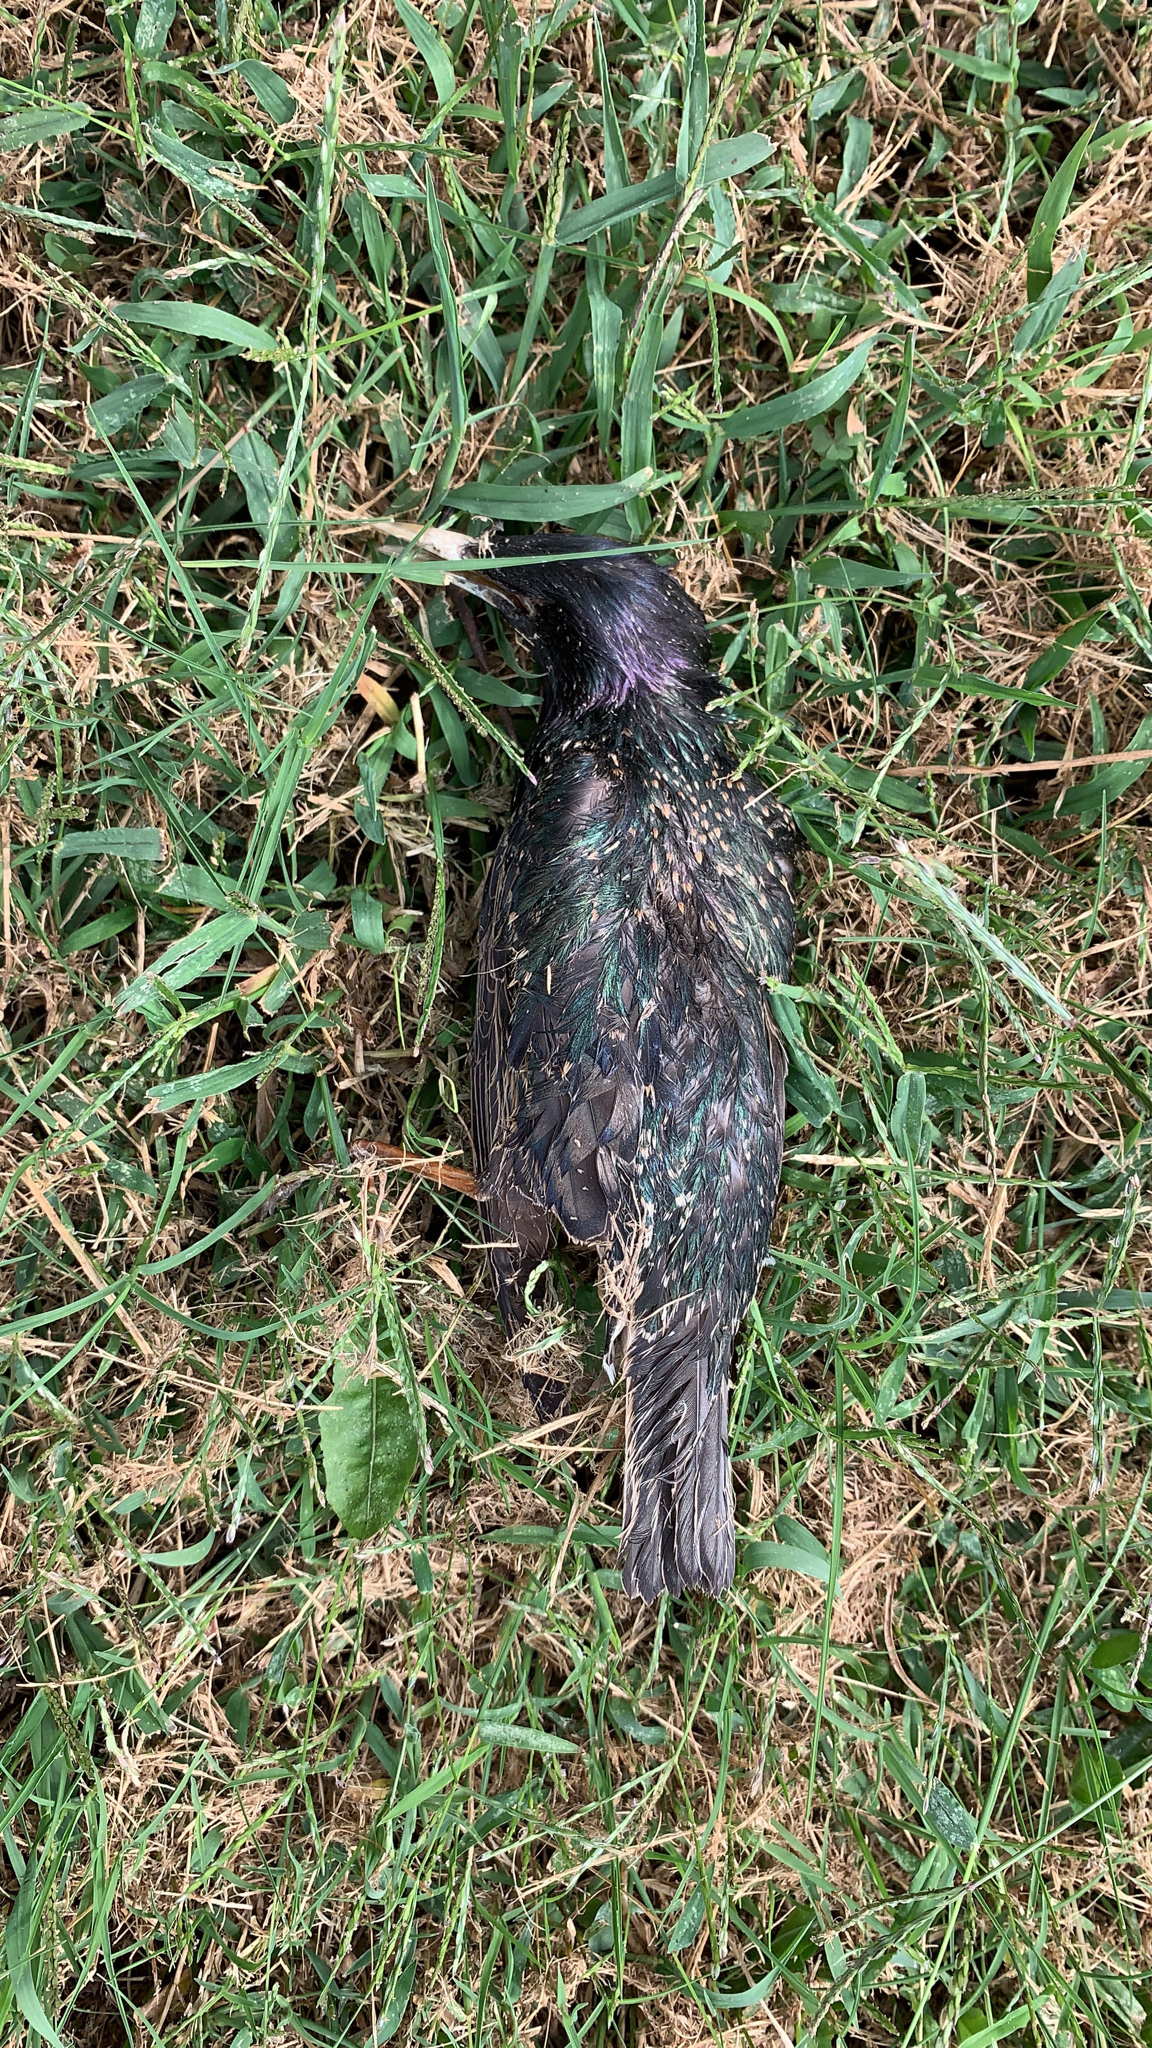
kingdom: Animalia
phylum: Chordata
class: Aves
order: Passeriformes
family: Sturnidae
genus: Sturnus
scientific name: Sturnus vulgaris
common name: Common starling
